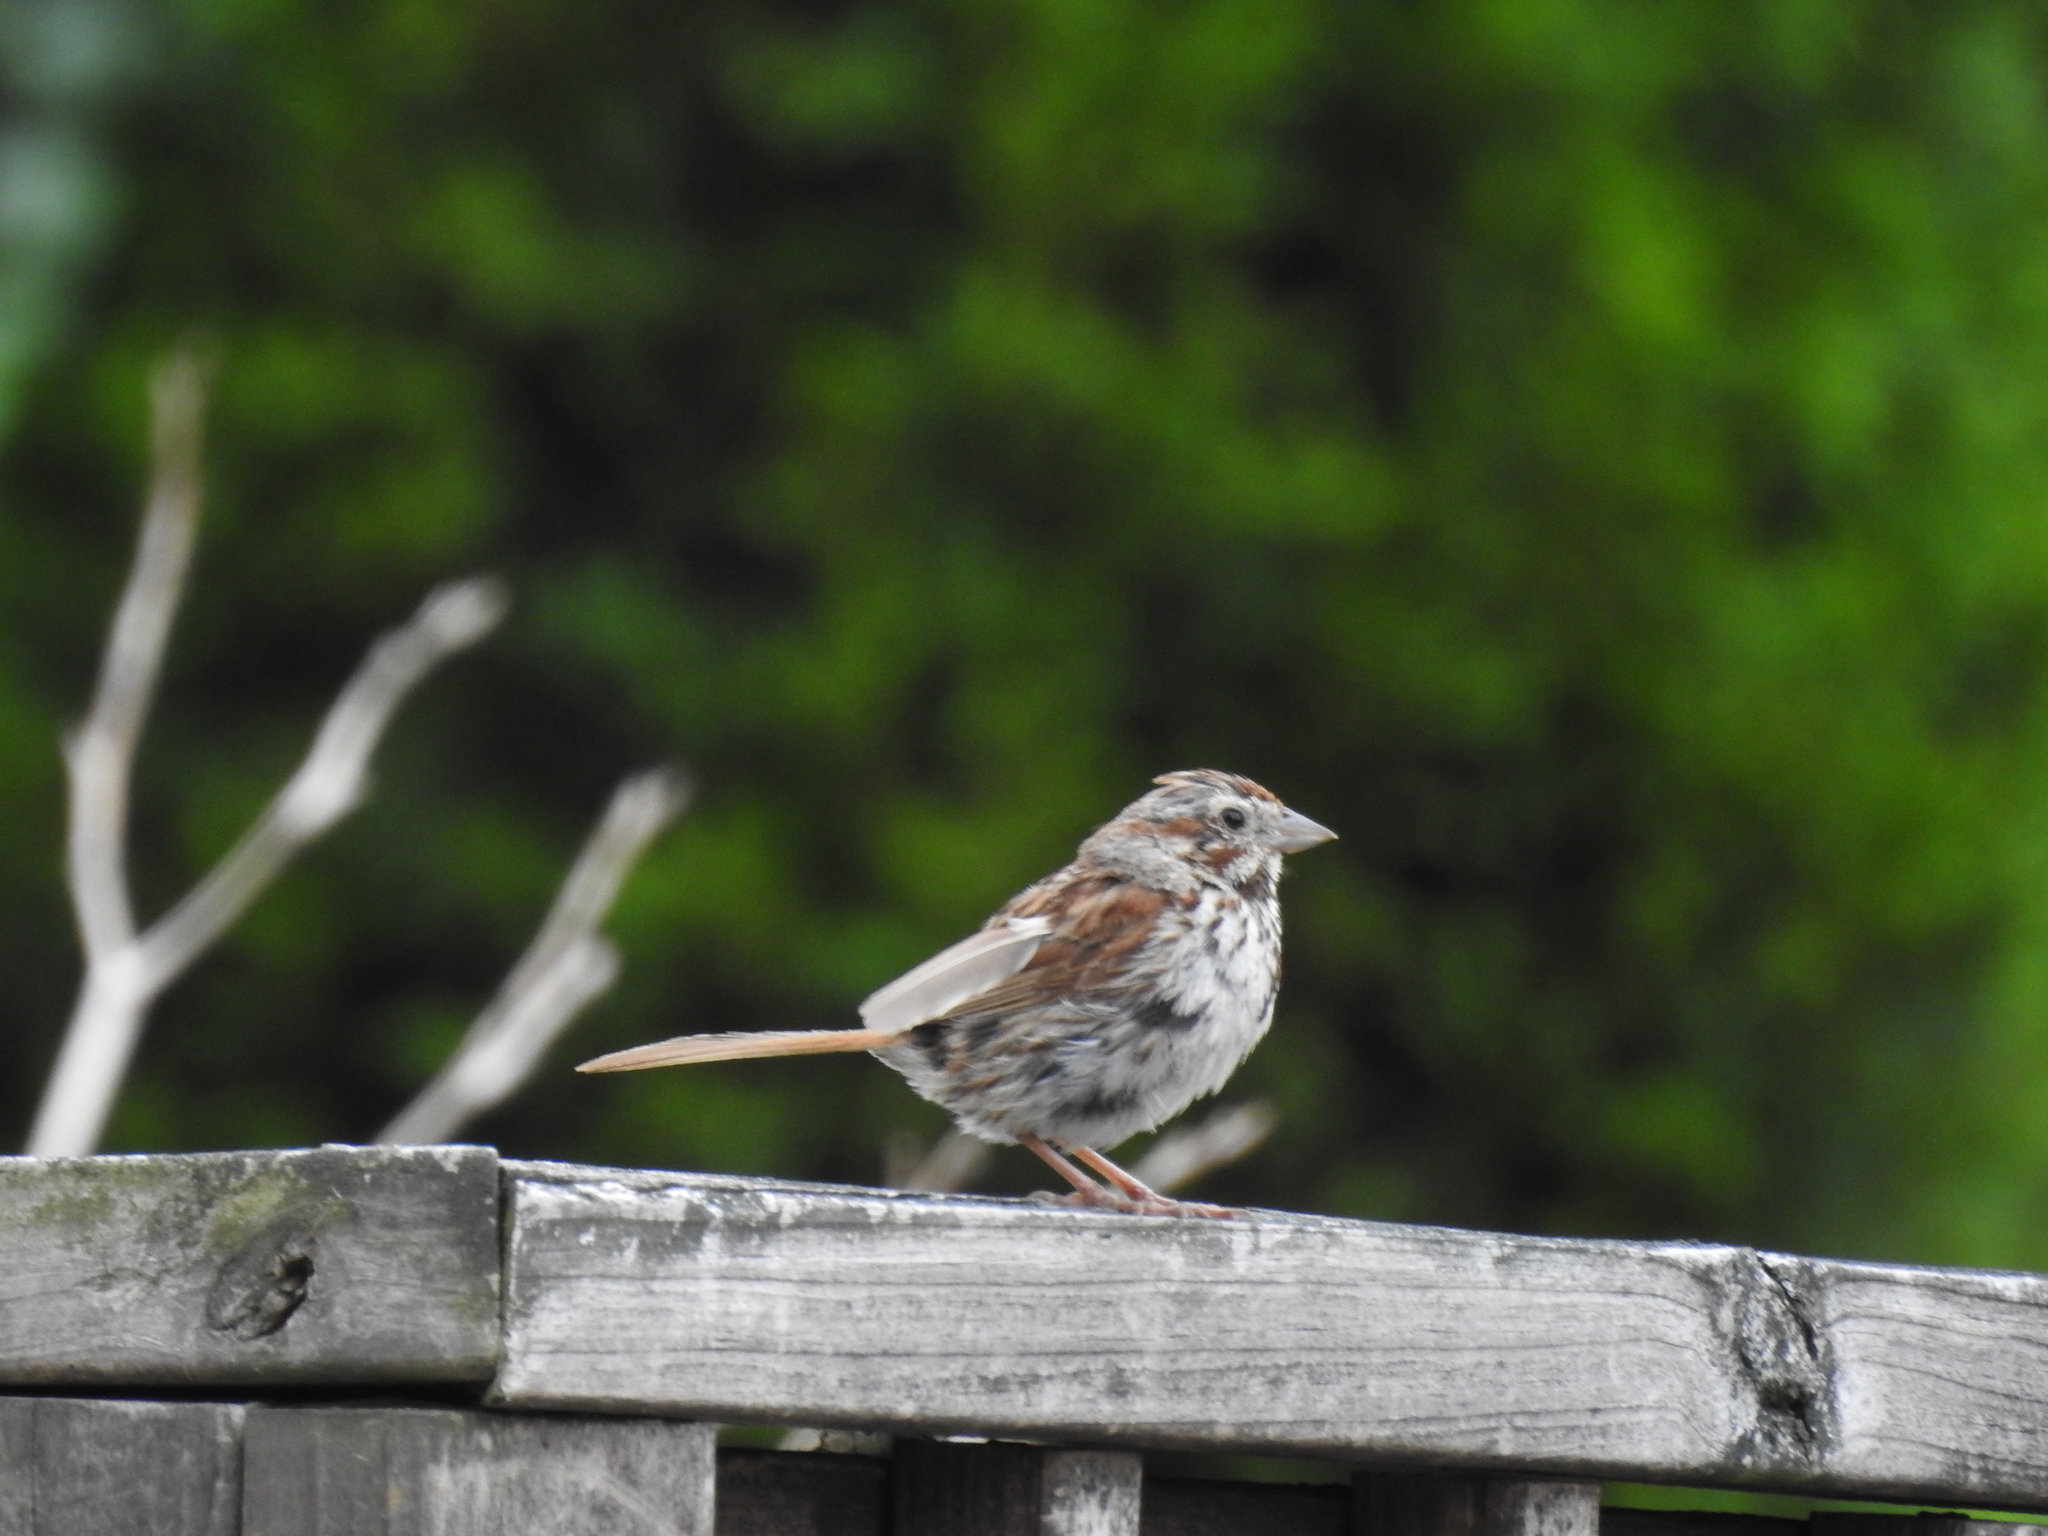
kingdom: Animalia
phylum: Chordata
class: Aves
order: Passeriformes
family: Passerellidae
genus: Melospiza
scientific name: Melospiza melodia
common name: Song sparrow
